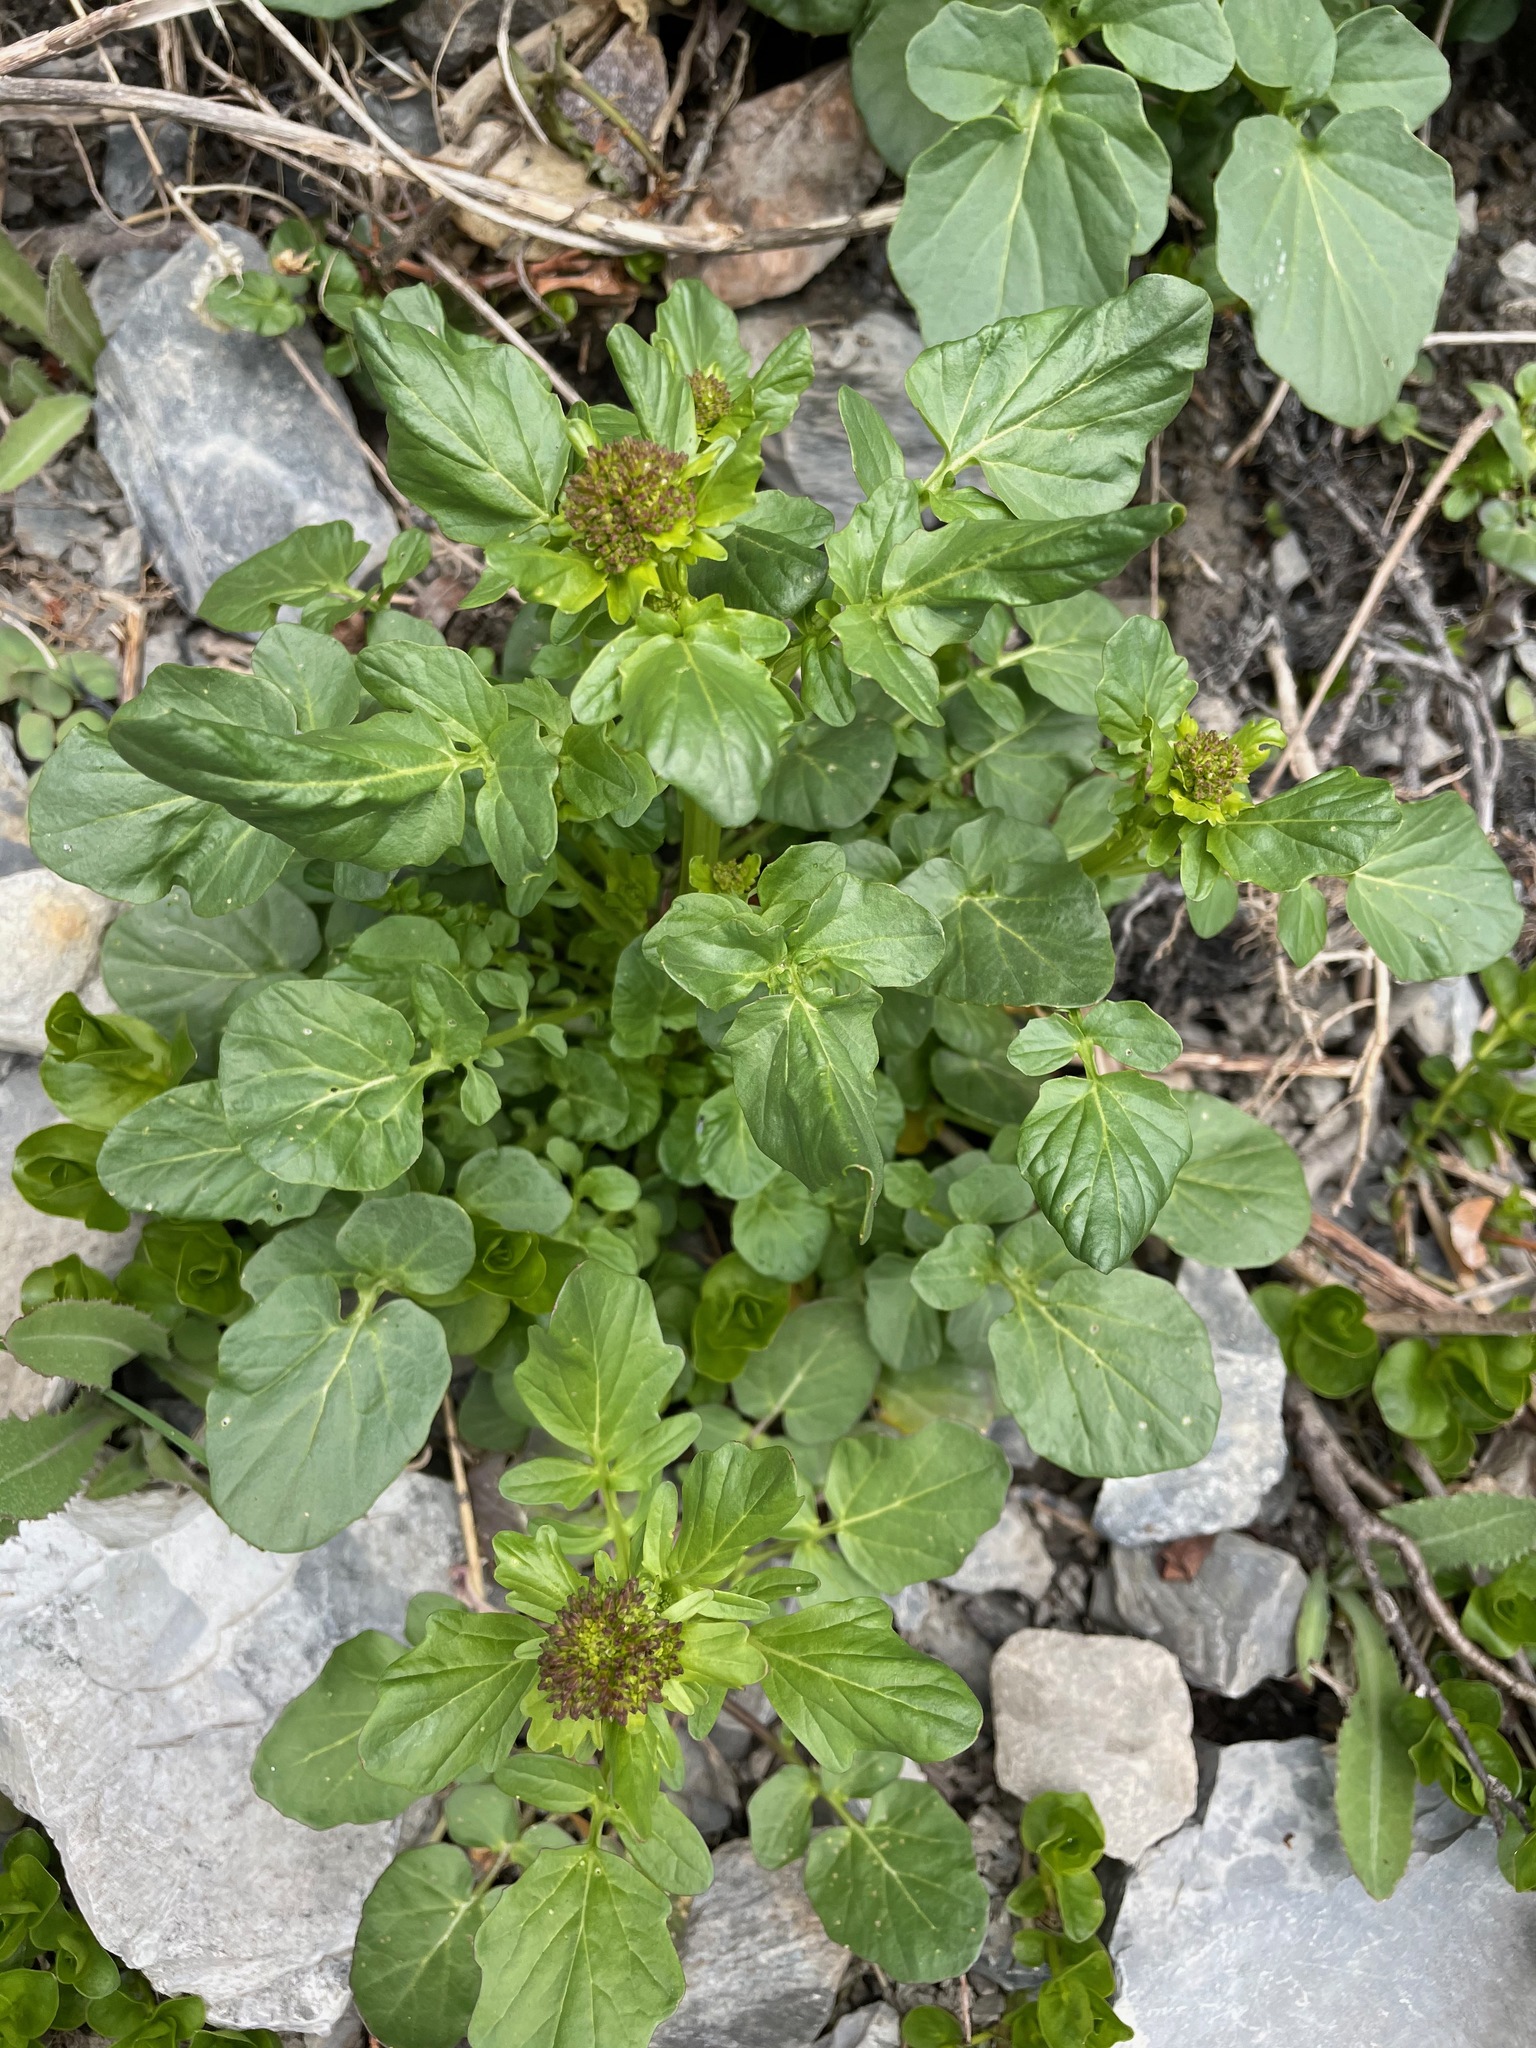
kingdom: Plantae
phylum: Tracheophyta
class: Magnoliopsida
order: Brassicales
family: Brassicaceae
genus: Barbarea
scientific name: Barbarea vulgaris
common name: Cressy-greens
